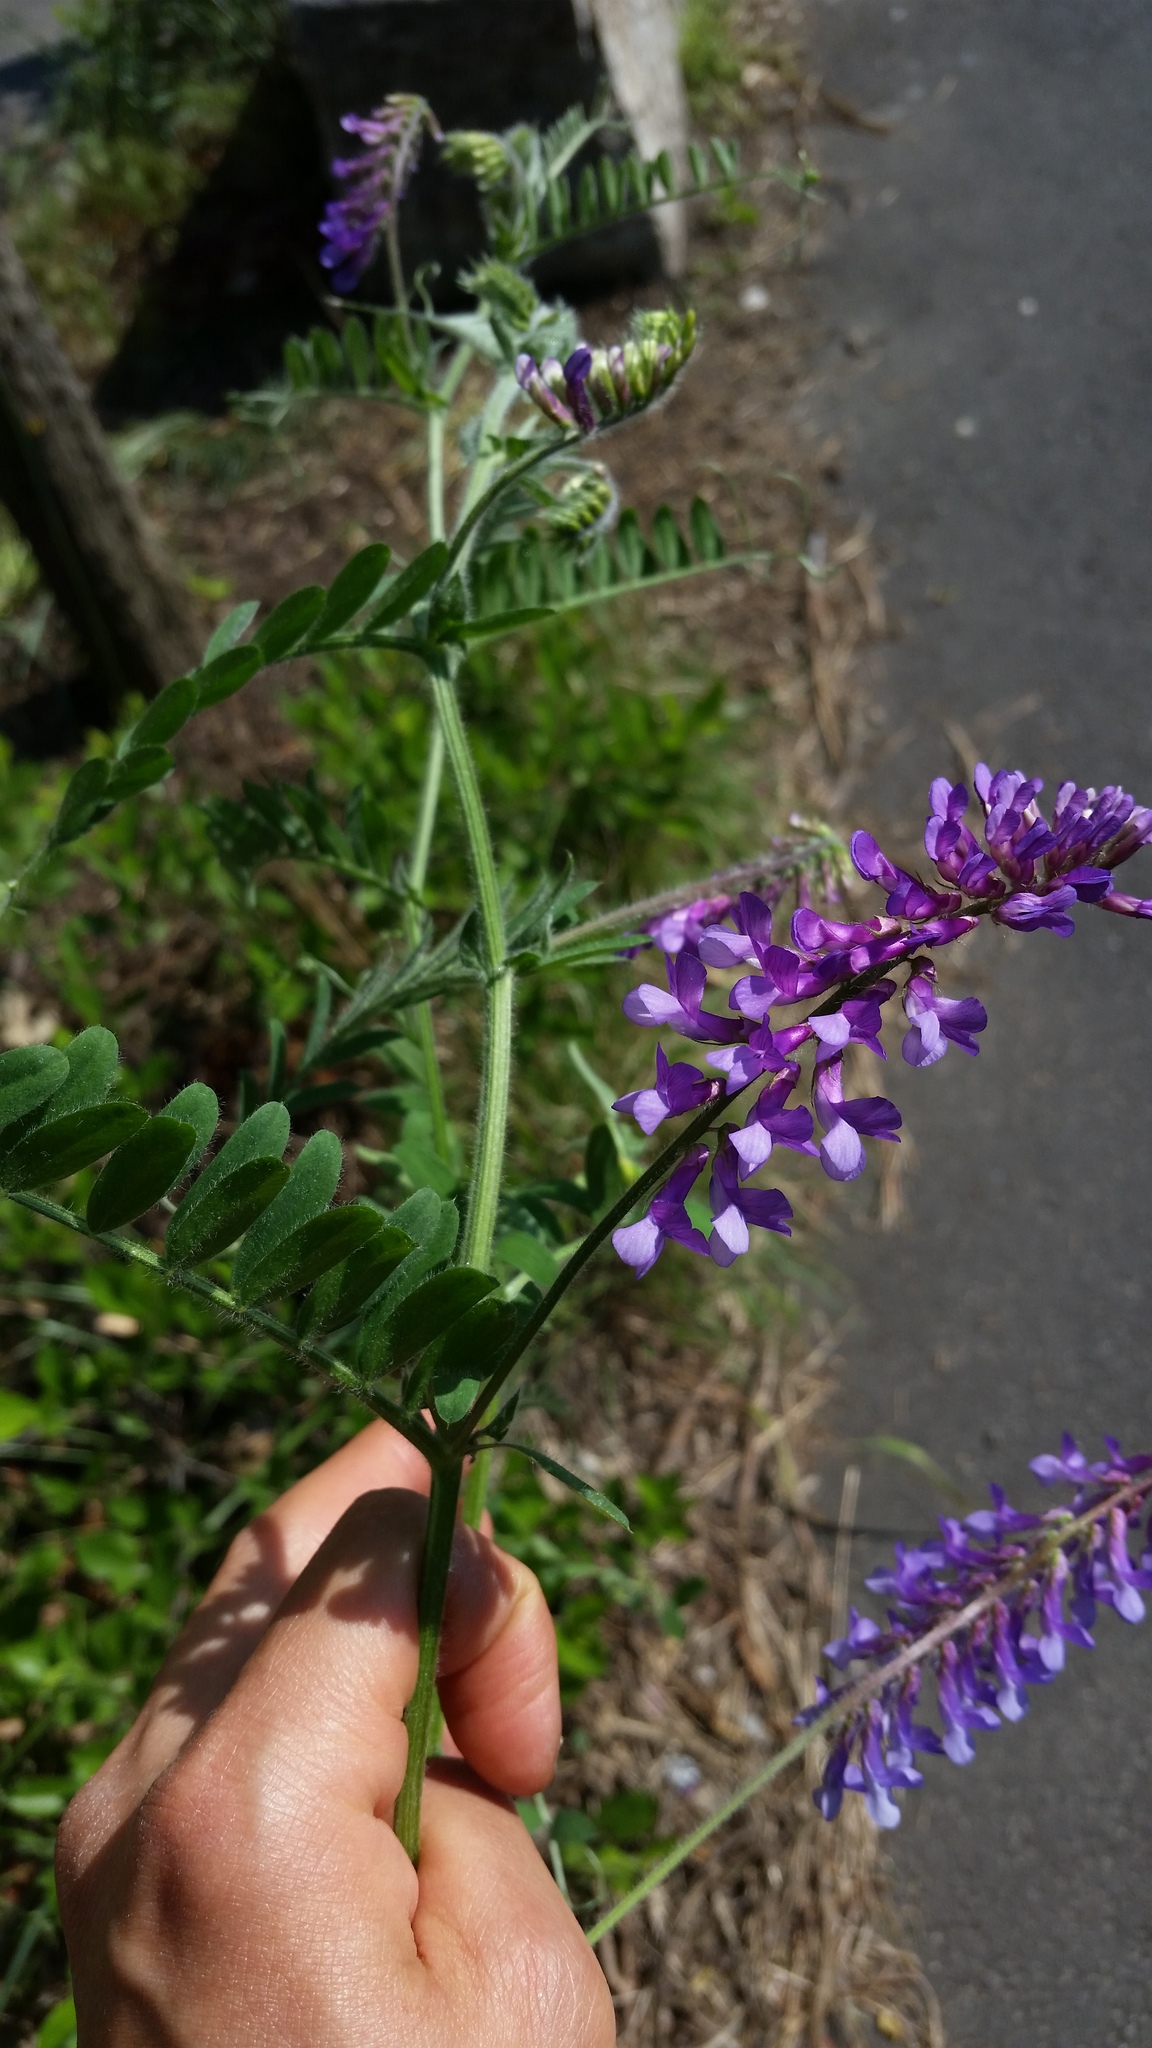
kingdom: Plantae
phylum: Tracheophyta
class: Magnoliopsida
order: Fabales
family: Fabaceae
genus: Vicia
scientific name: Vicia villosa
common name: Fodder vetch
